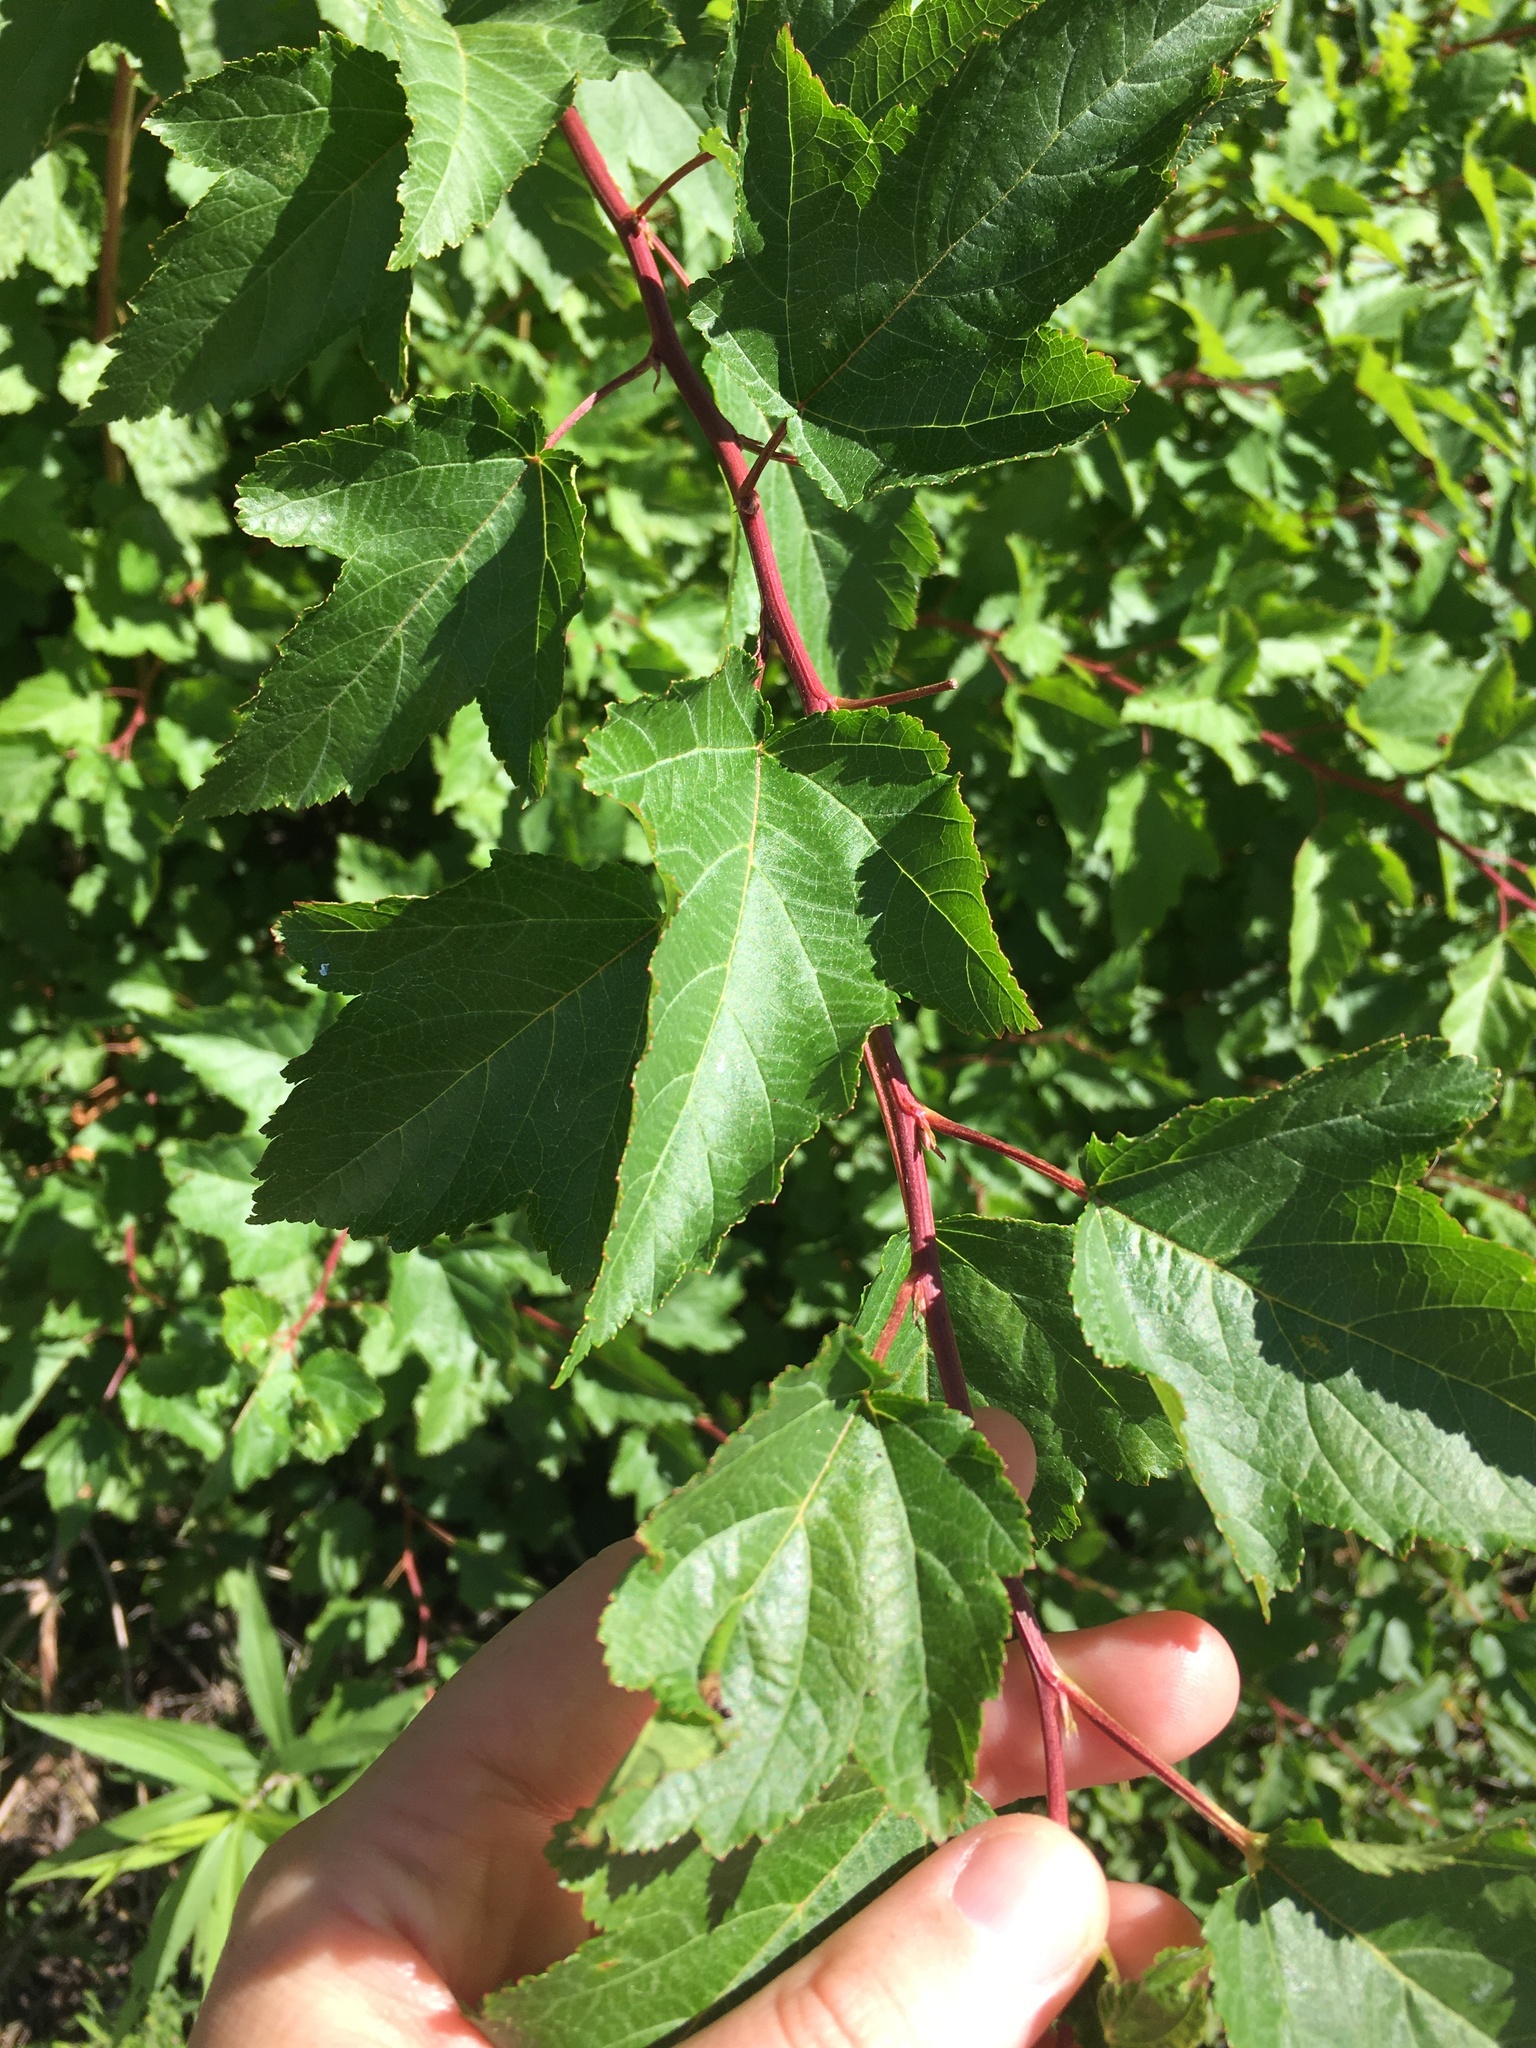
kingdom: Plantae
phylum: Tracheophyta
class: Magnoliopsida
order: Rosales
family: Rosaceae
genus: Physocarpus
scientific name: Physocarpus opulifolius
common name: Ninebark
